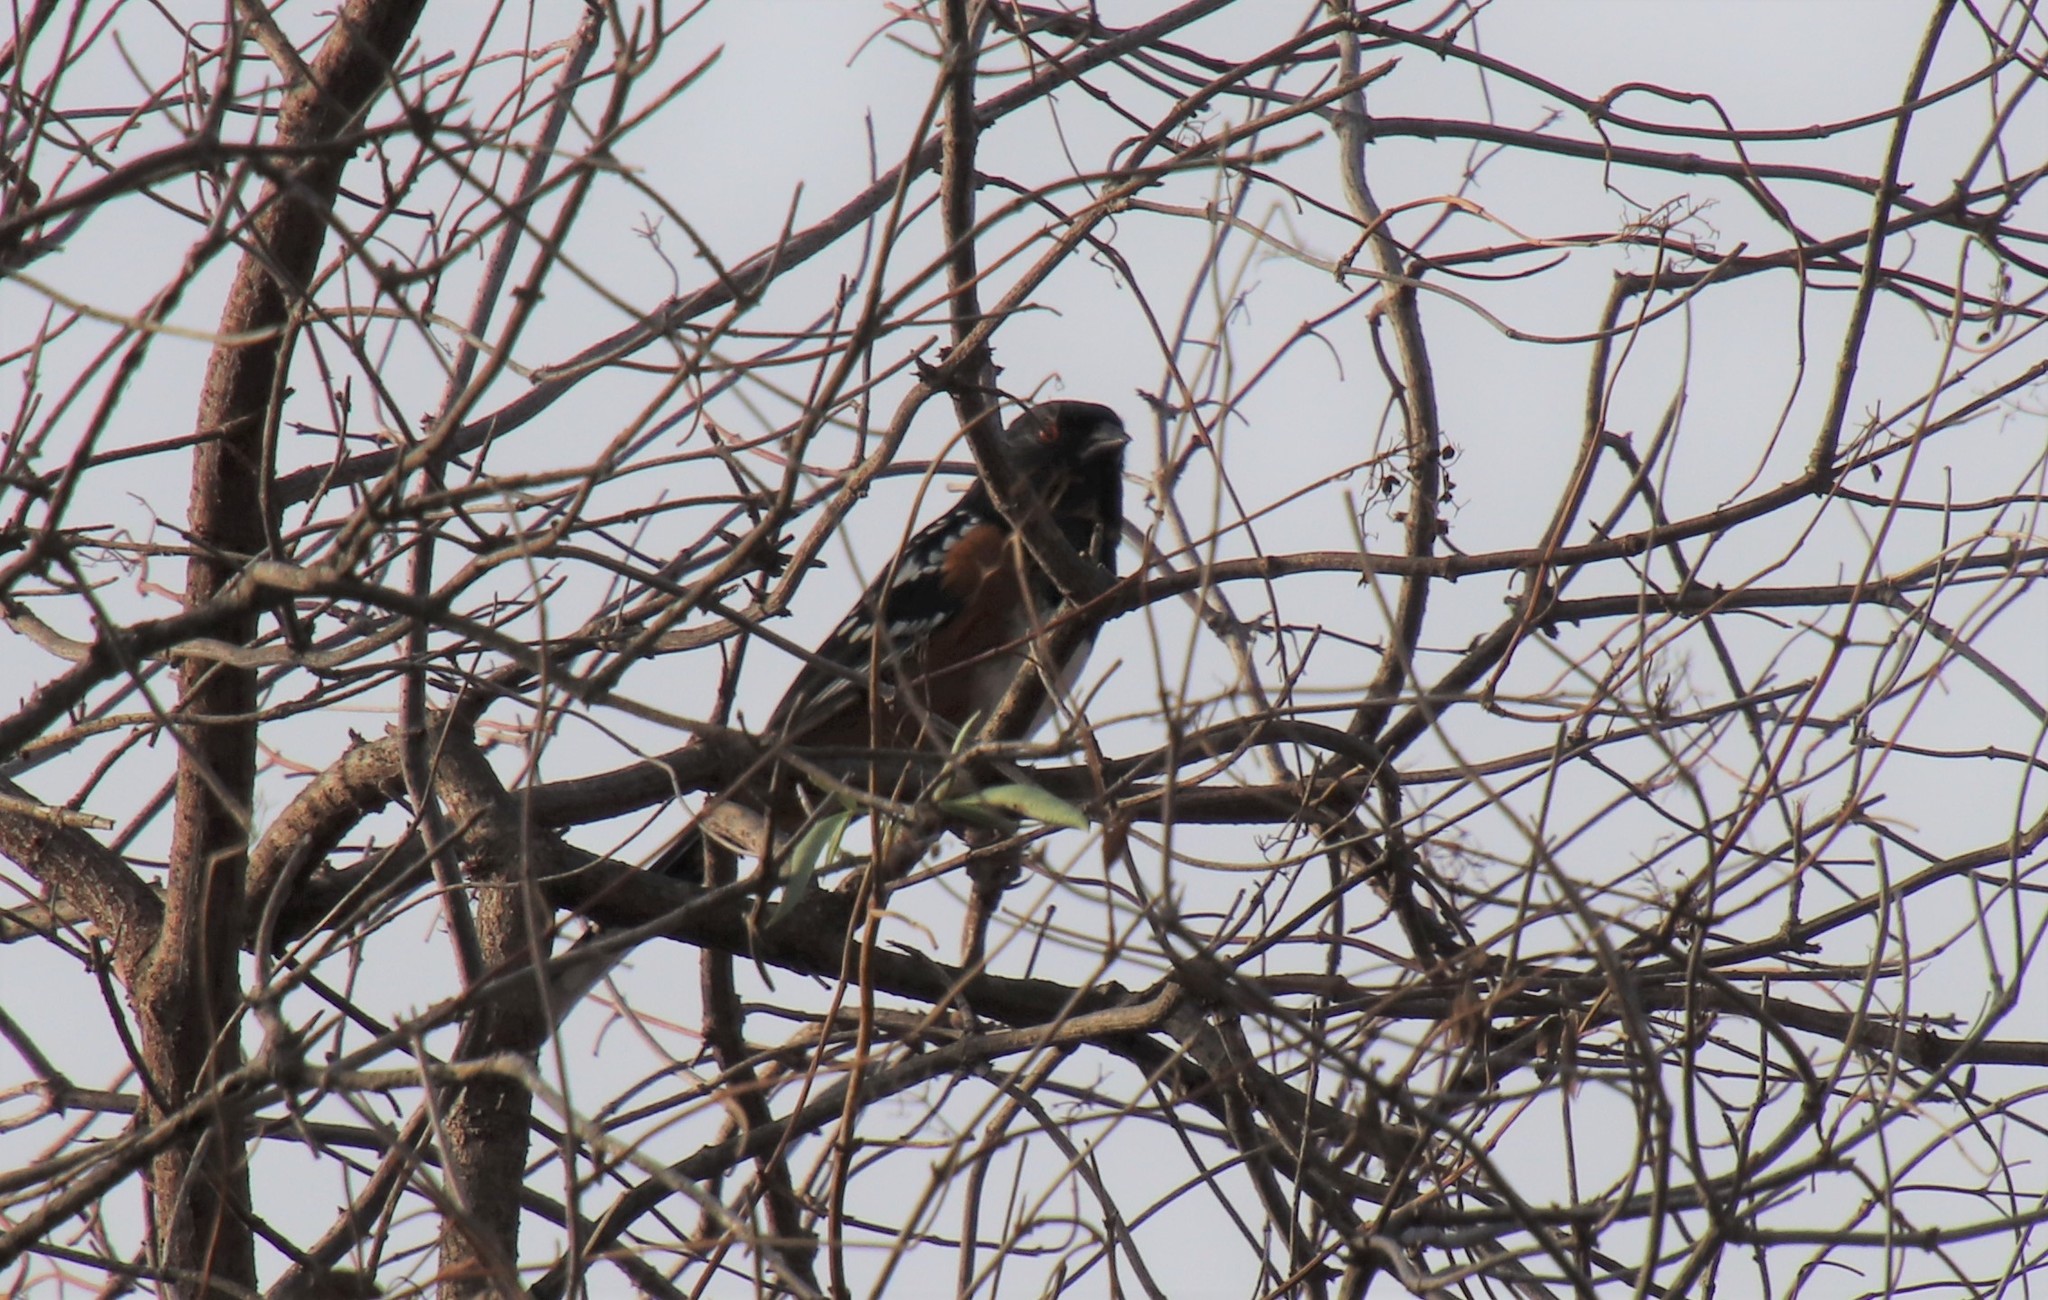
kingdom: Animalia
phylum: Chordata
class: Aves
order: Passeriformes
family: Passerellidae
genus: Pipilo
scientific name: Pipilo maculatus
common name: Spotted towhee
